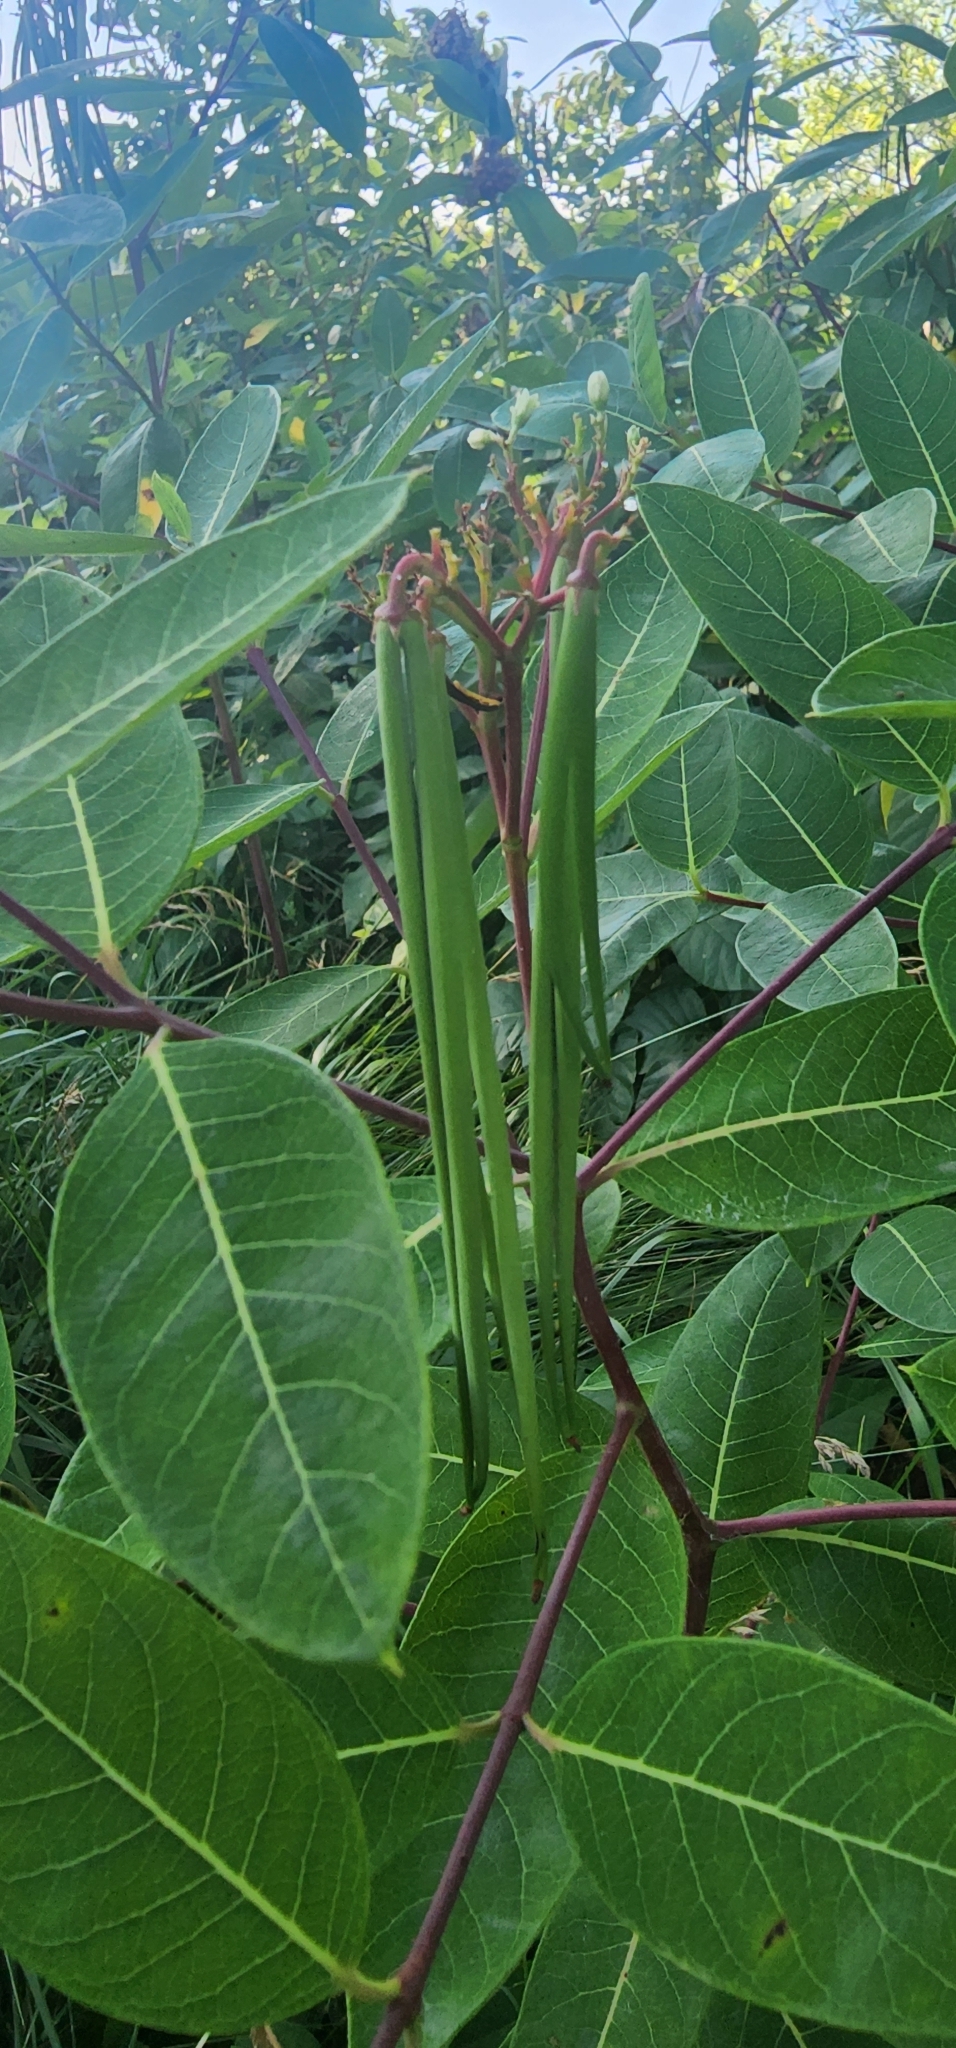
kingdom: Plantae
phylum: Tracheophyta
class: Magnoliopsida
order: Gentianales
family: Apocynaceae
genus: Apocynum
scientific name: Apocynum cannabinum
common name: Hemp dogbane
